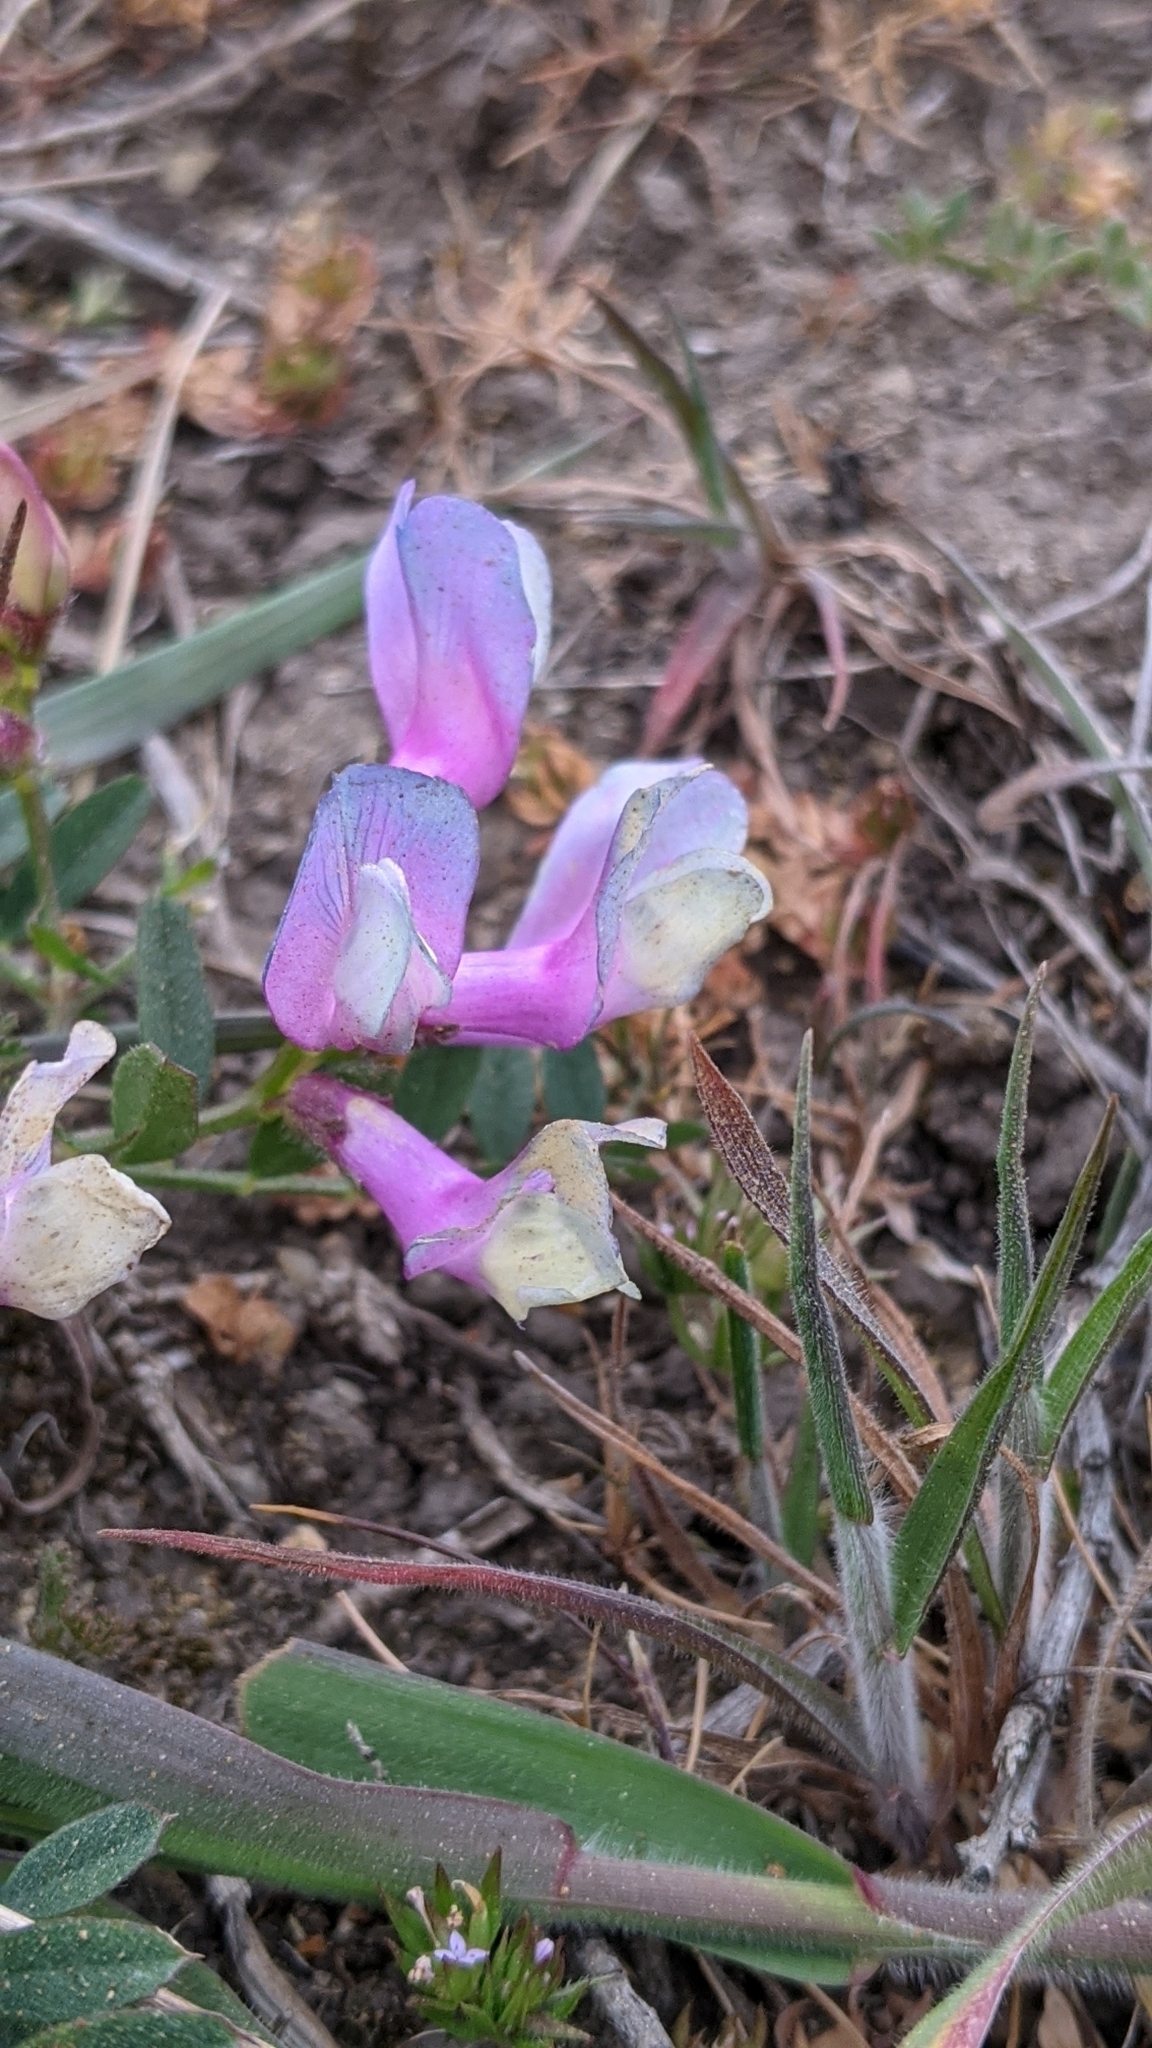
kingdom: Plantae
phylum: Tracheophyta
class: Magnoliopsida
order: Fabales
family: Fabaceae
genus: Vicia
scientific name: Vicia americana
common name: American vetch
